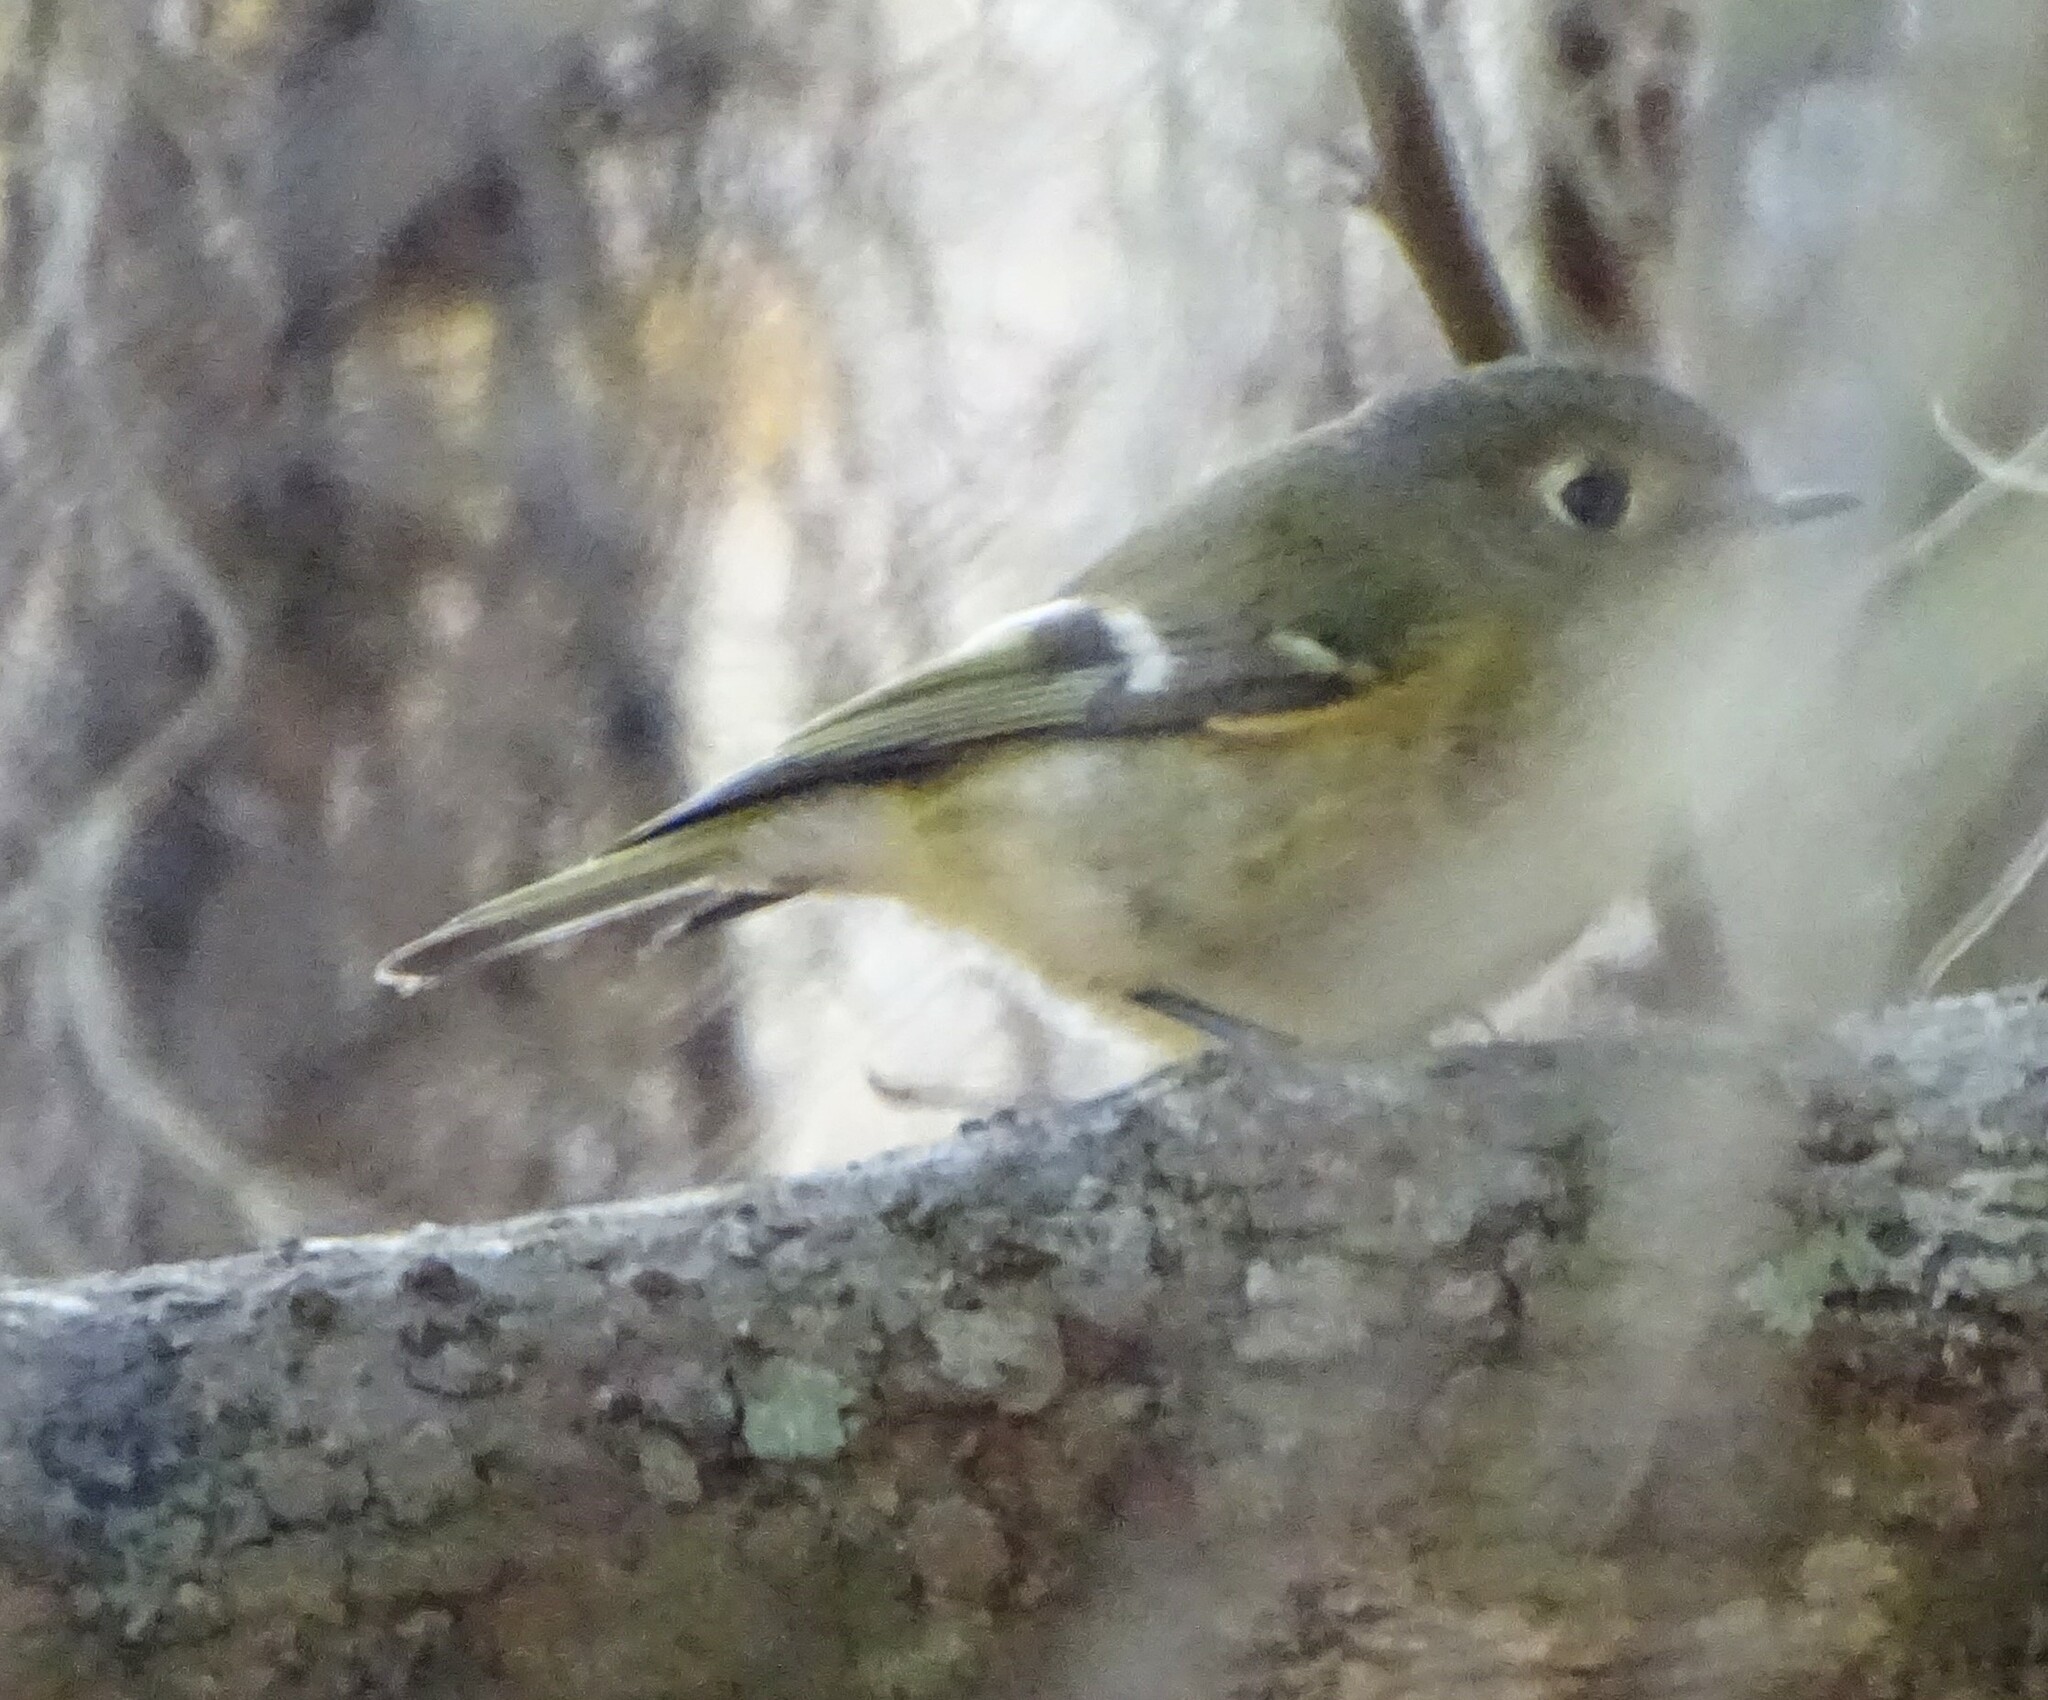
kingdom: Animalia
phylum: Chordata
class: Aves
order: Passeriformes
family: Regulidae
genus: Regulus
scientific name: Regulus calendula
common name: Ruby-crowned kinglet
